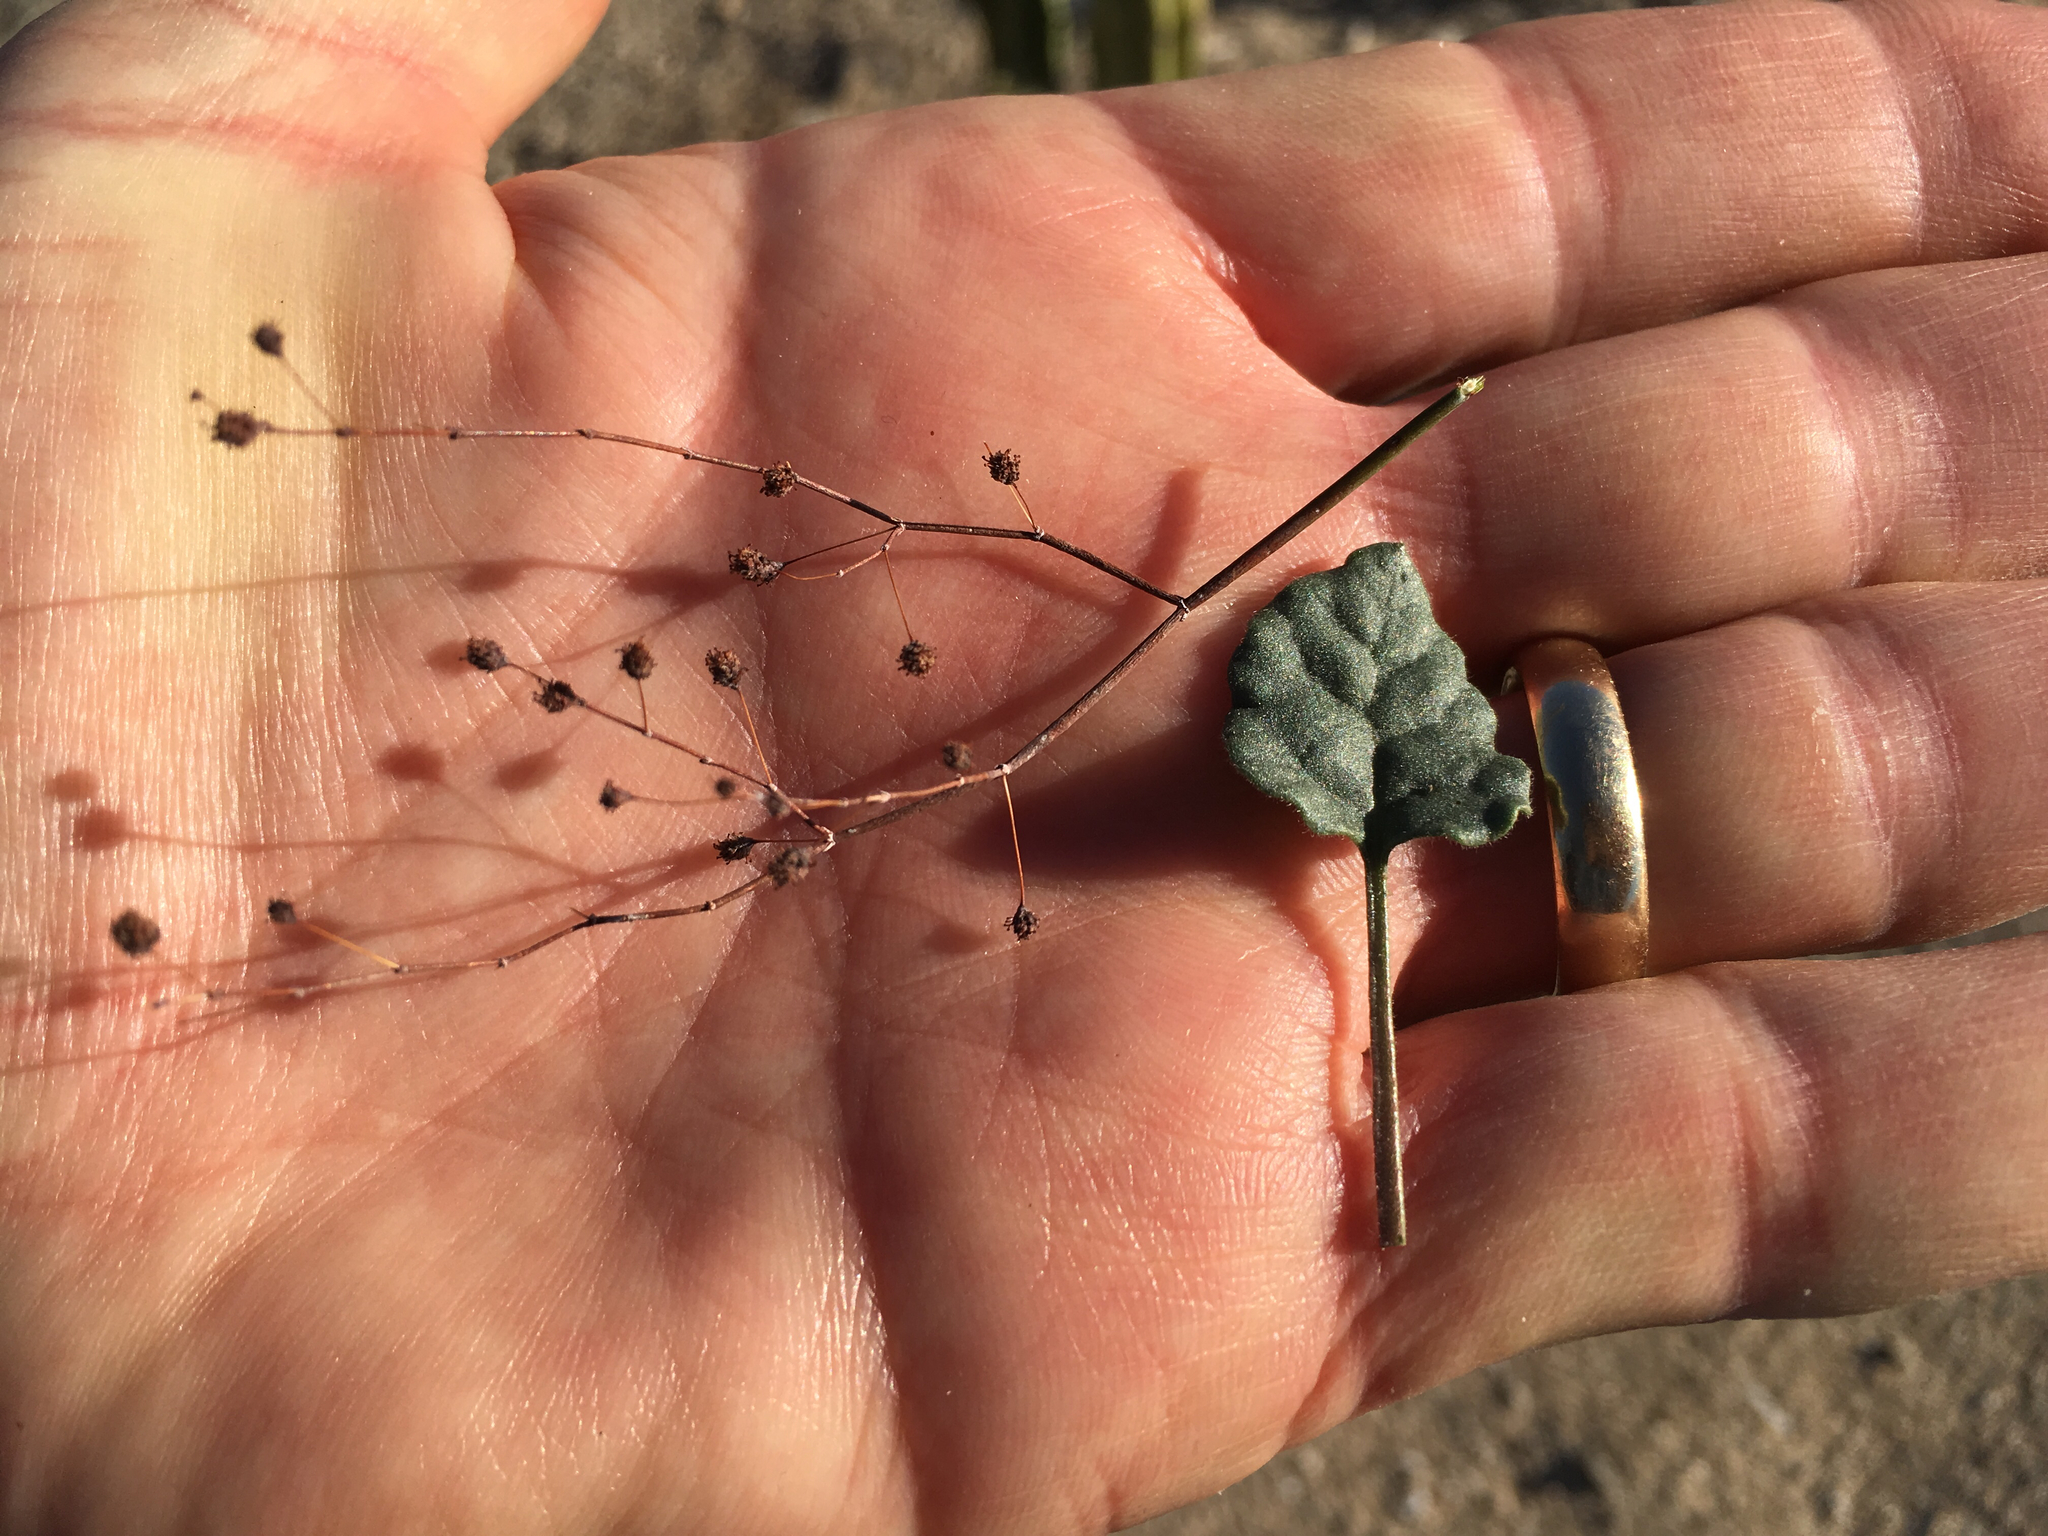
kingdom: Plantae
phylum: Tracheophyta
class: Magnoliopsida
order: Caryophyllales
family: Polygonaceae
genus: Eriogonum
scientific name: Eriogonum inflatum
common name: Desert trumpet
